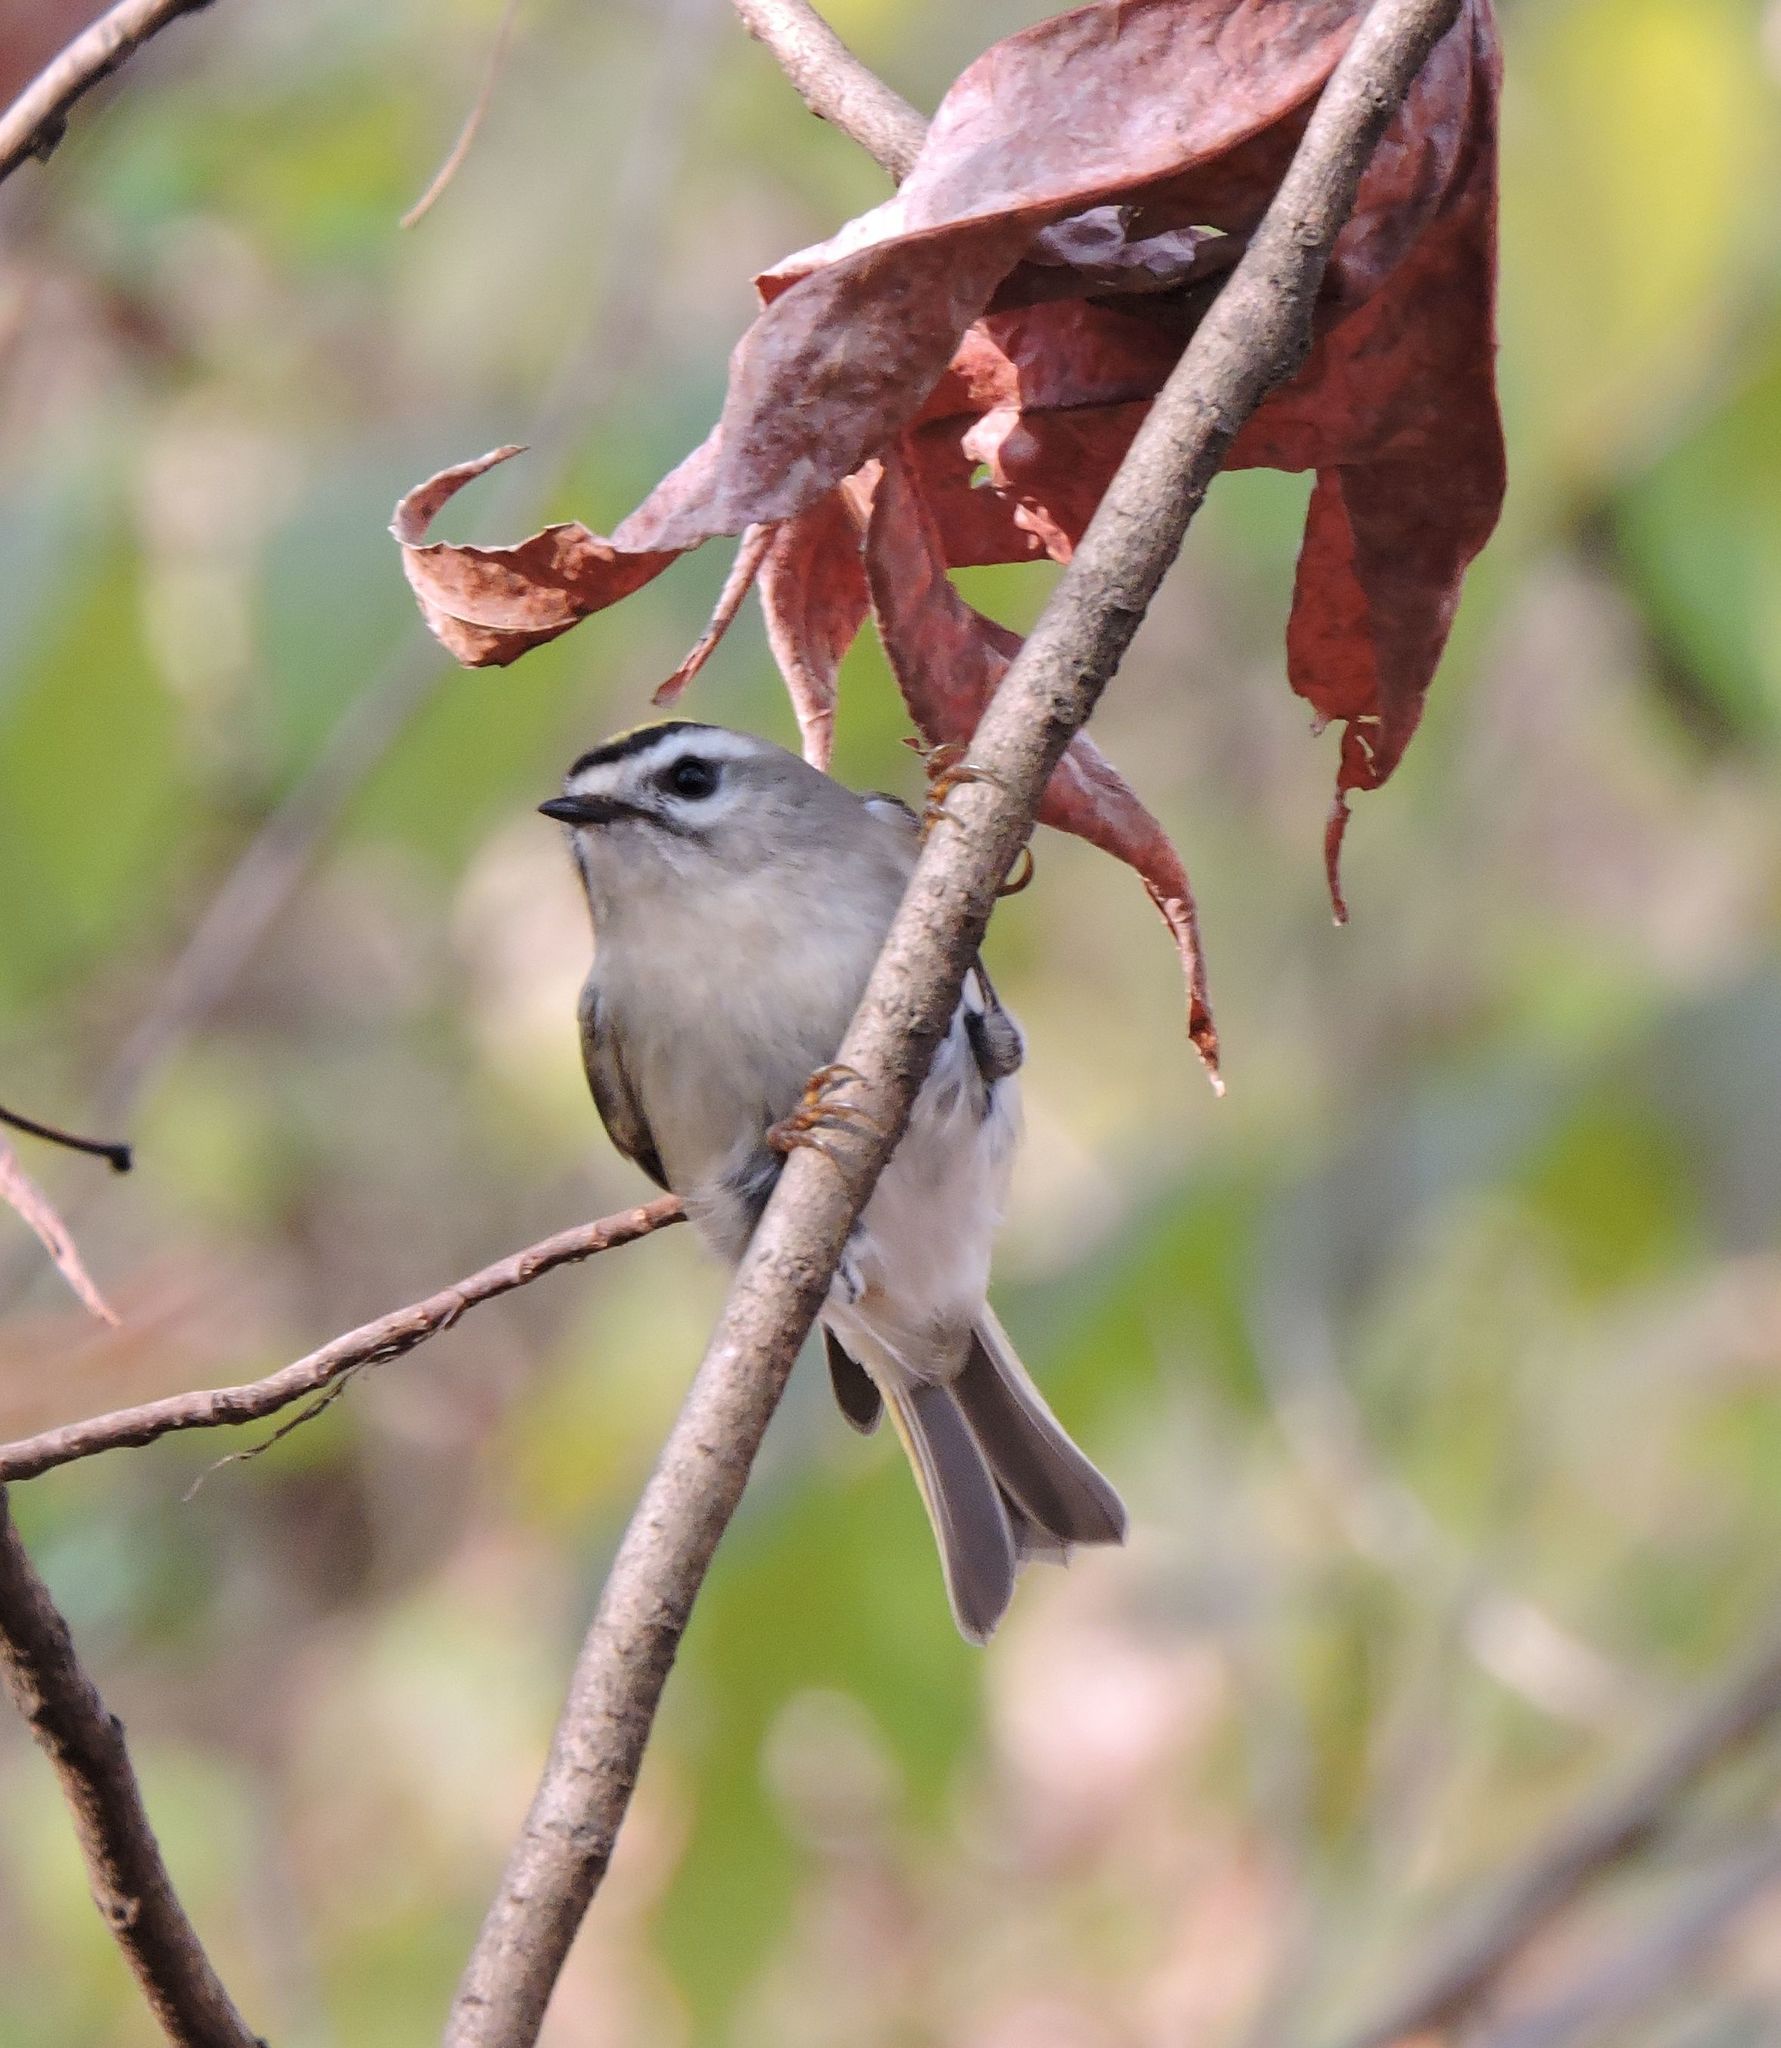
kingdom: Animalia
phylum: Chordata
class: Aves
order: Passeriformes
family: Regulidae
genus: Regulus
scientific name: Regulus satrapa
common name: Golden-crowned kinglet
